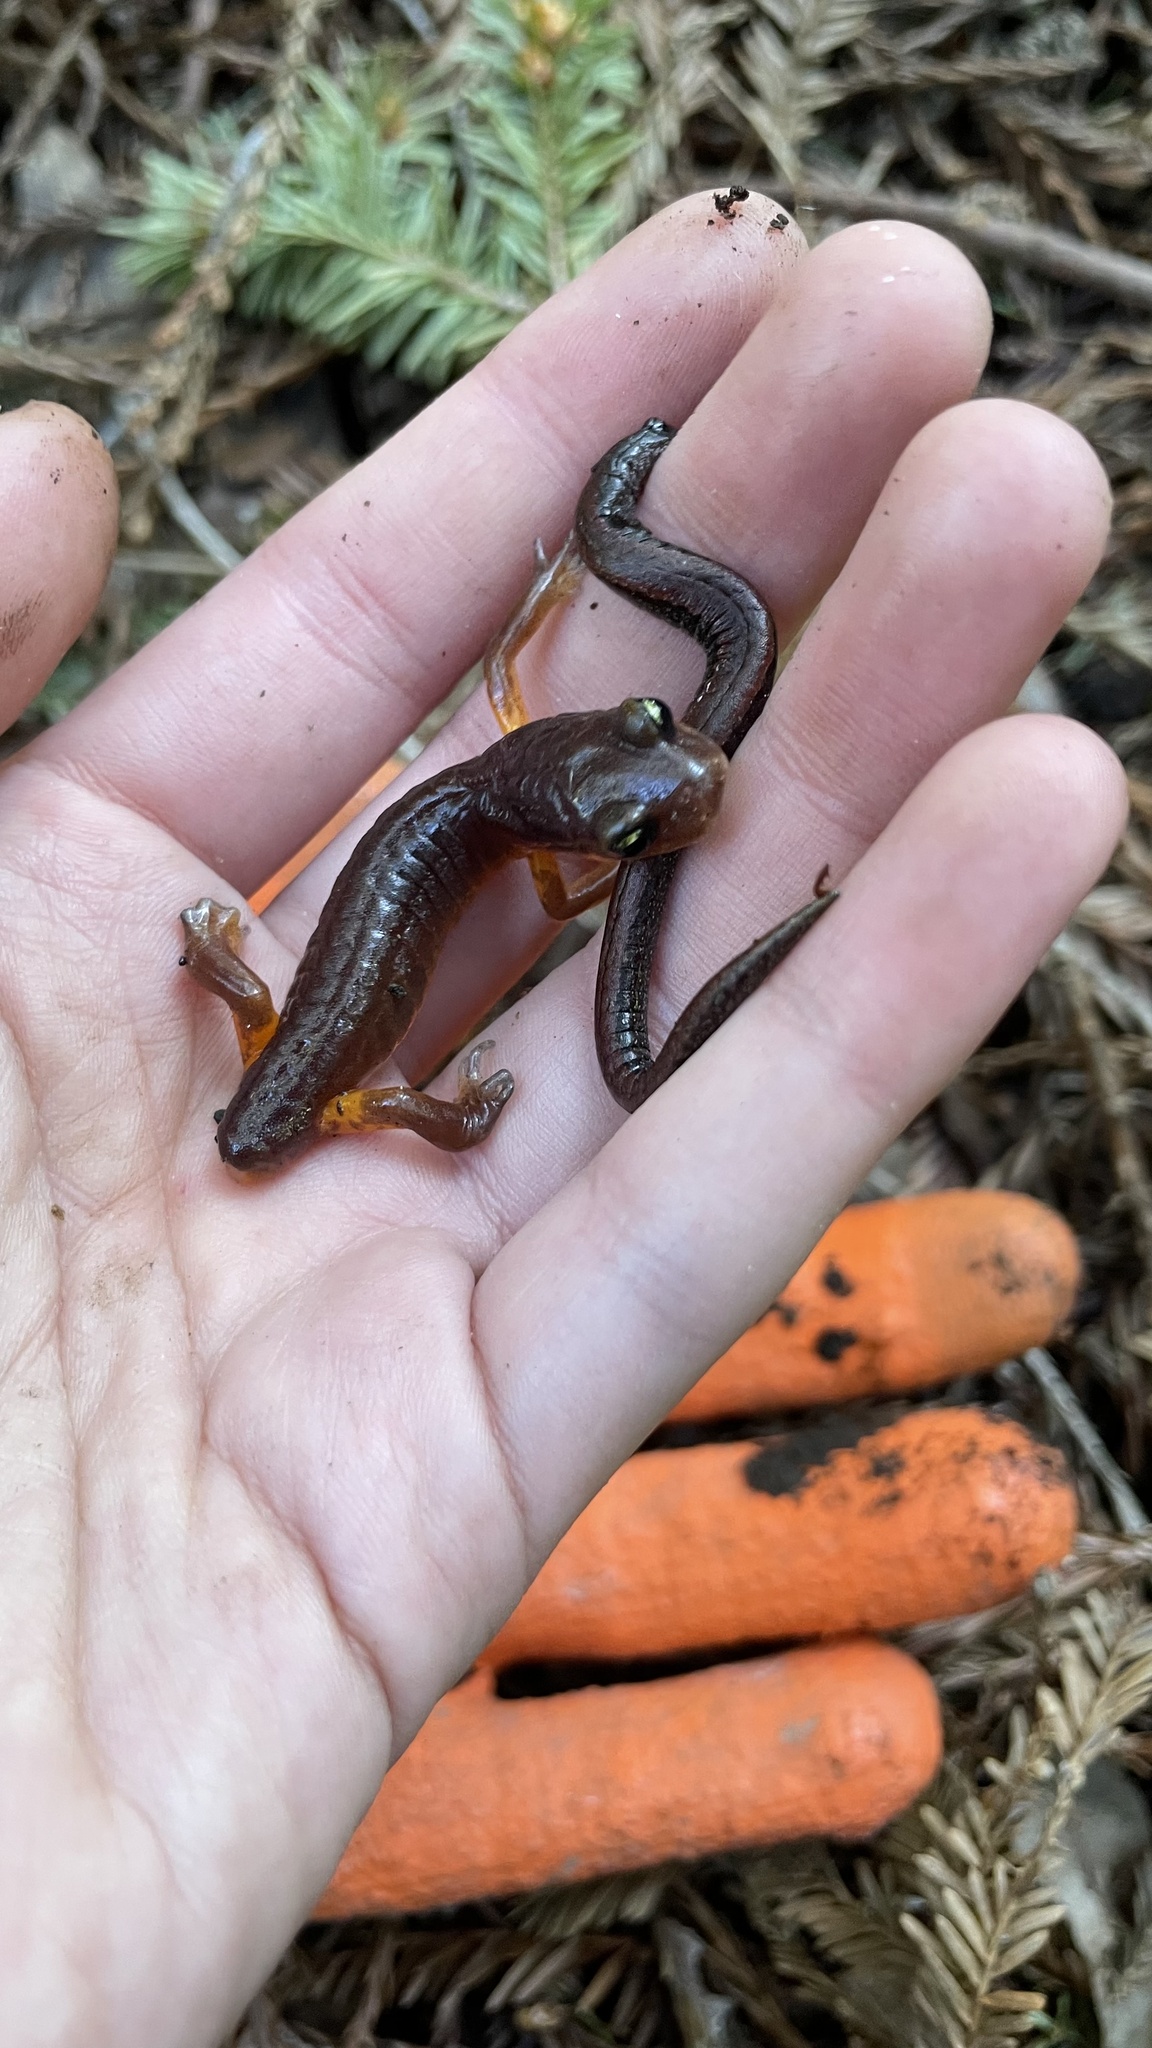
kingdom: Animalia
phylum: Chordata
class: Amphibia
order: Caudata
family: Plethodontidae
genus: Ensatina
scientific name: Ensatina eschscholtzii
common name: Ensatina
